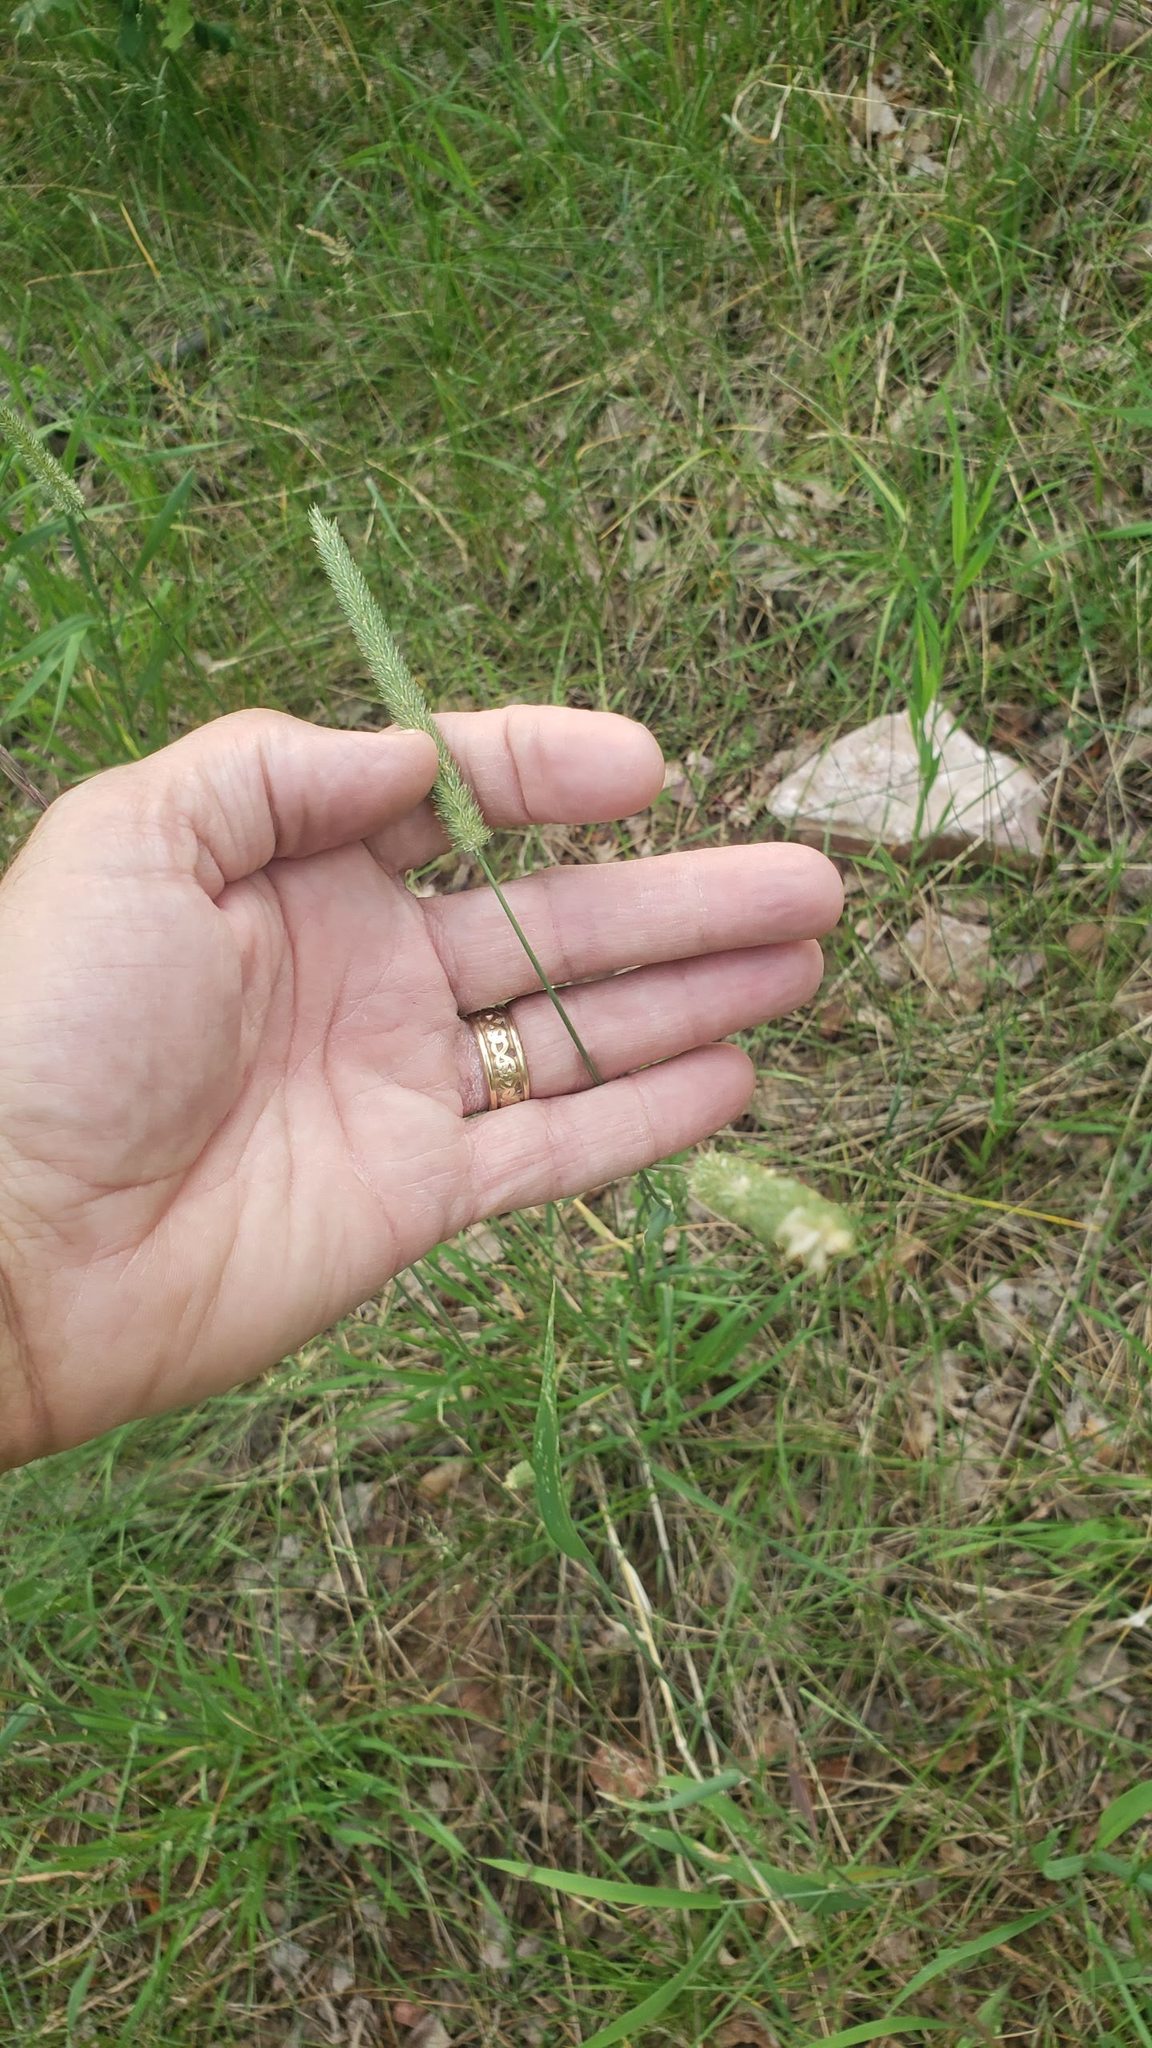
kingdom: Plantae
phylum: Tracheophyta
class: Liliopsida
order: Poales
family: Poaceae
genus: Phleum
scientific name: Phleum pratense
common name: Timothy grass
